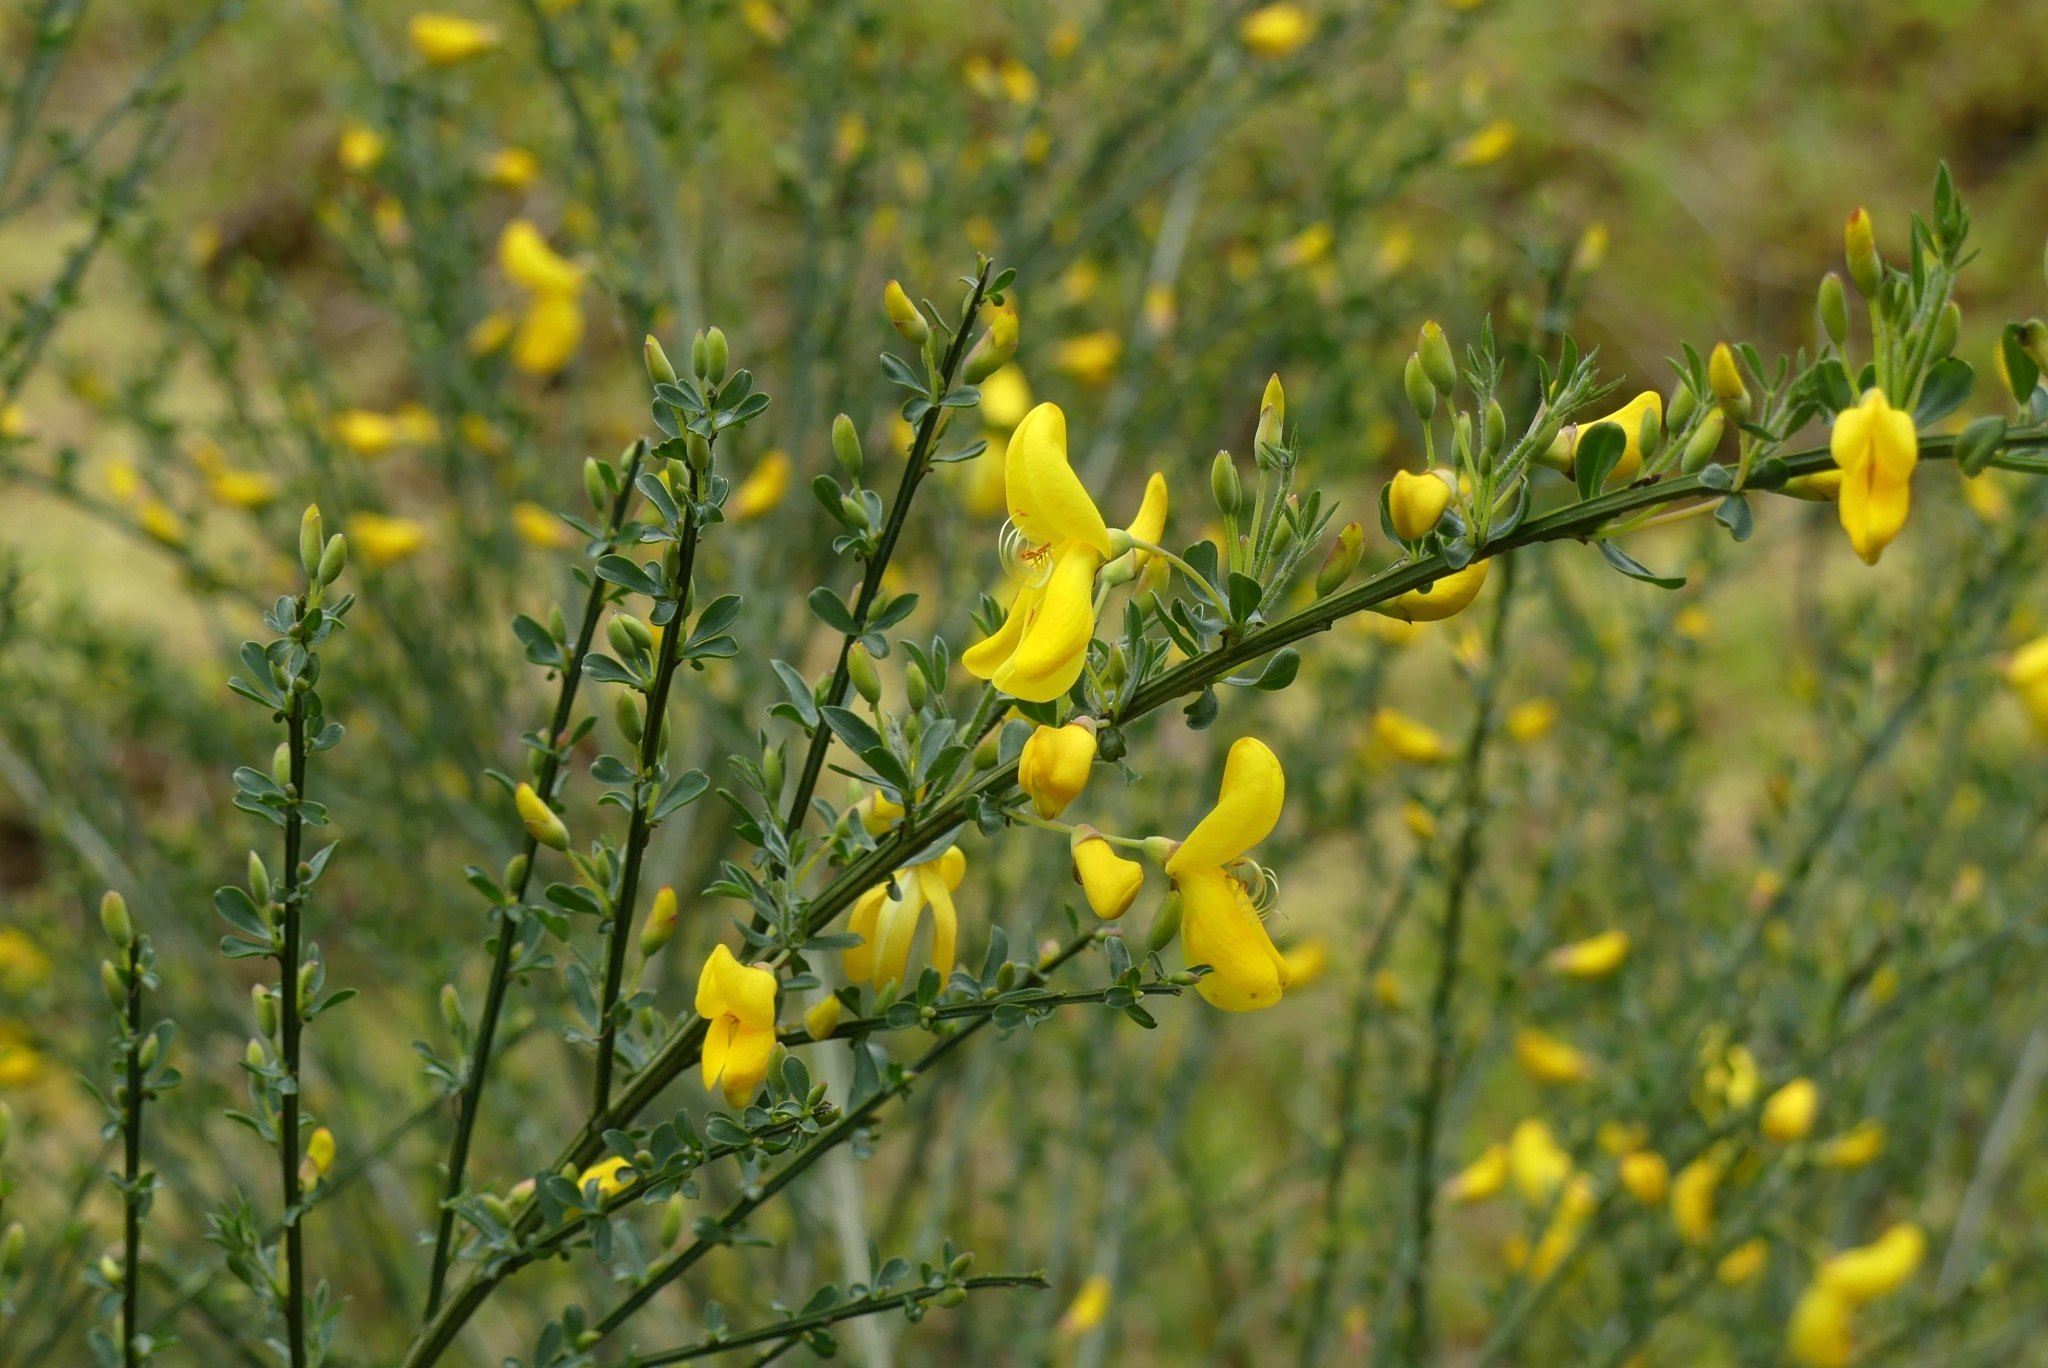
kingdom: Plantae
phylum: Tracheophyta
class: Magnoliopsida
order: Fabales
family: Fabaceae
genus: Cytisus
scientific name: Cytisus scoparius
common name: Scotch broom
